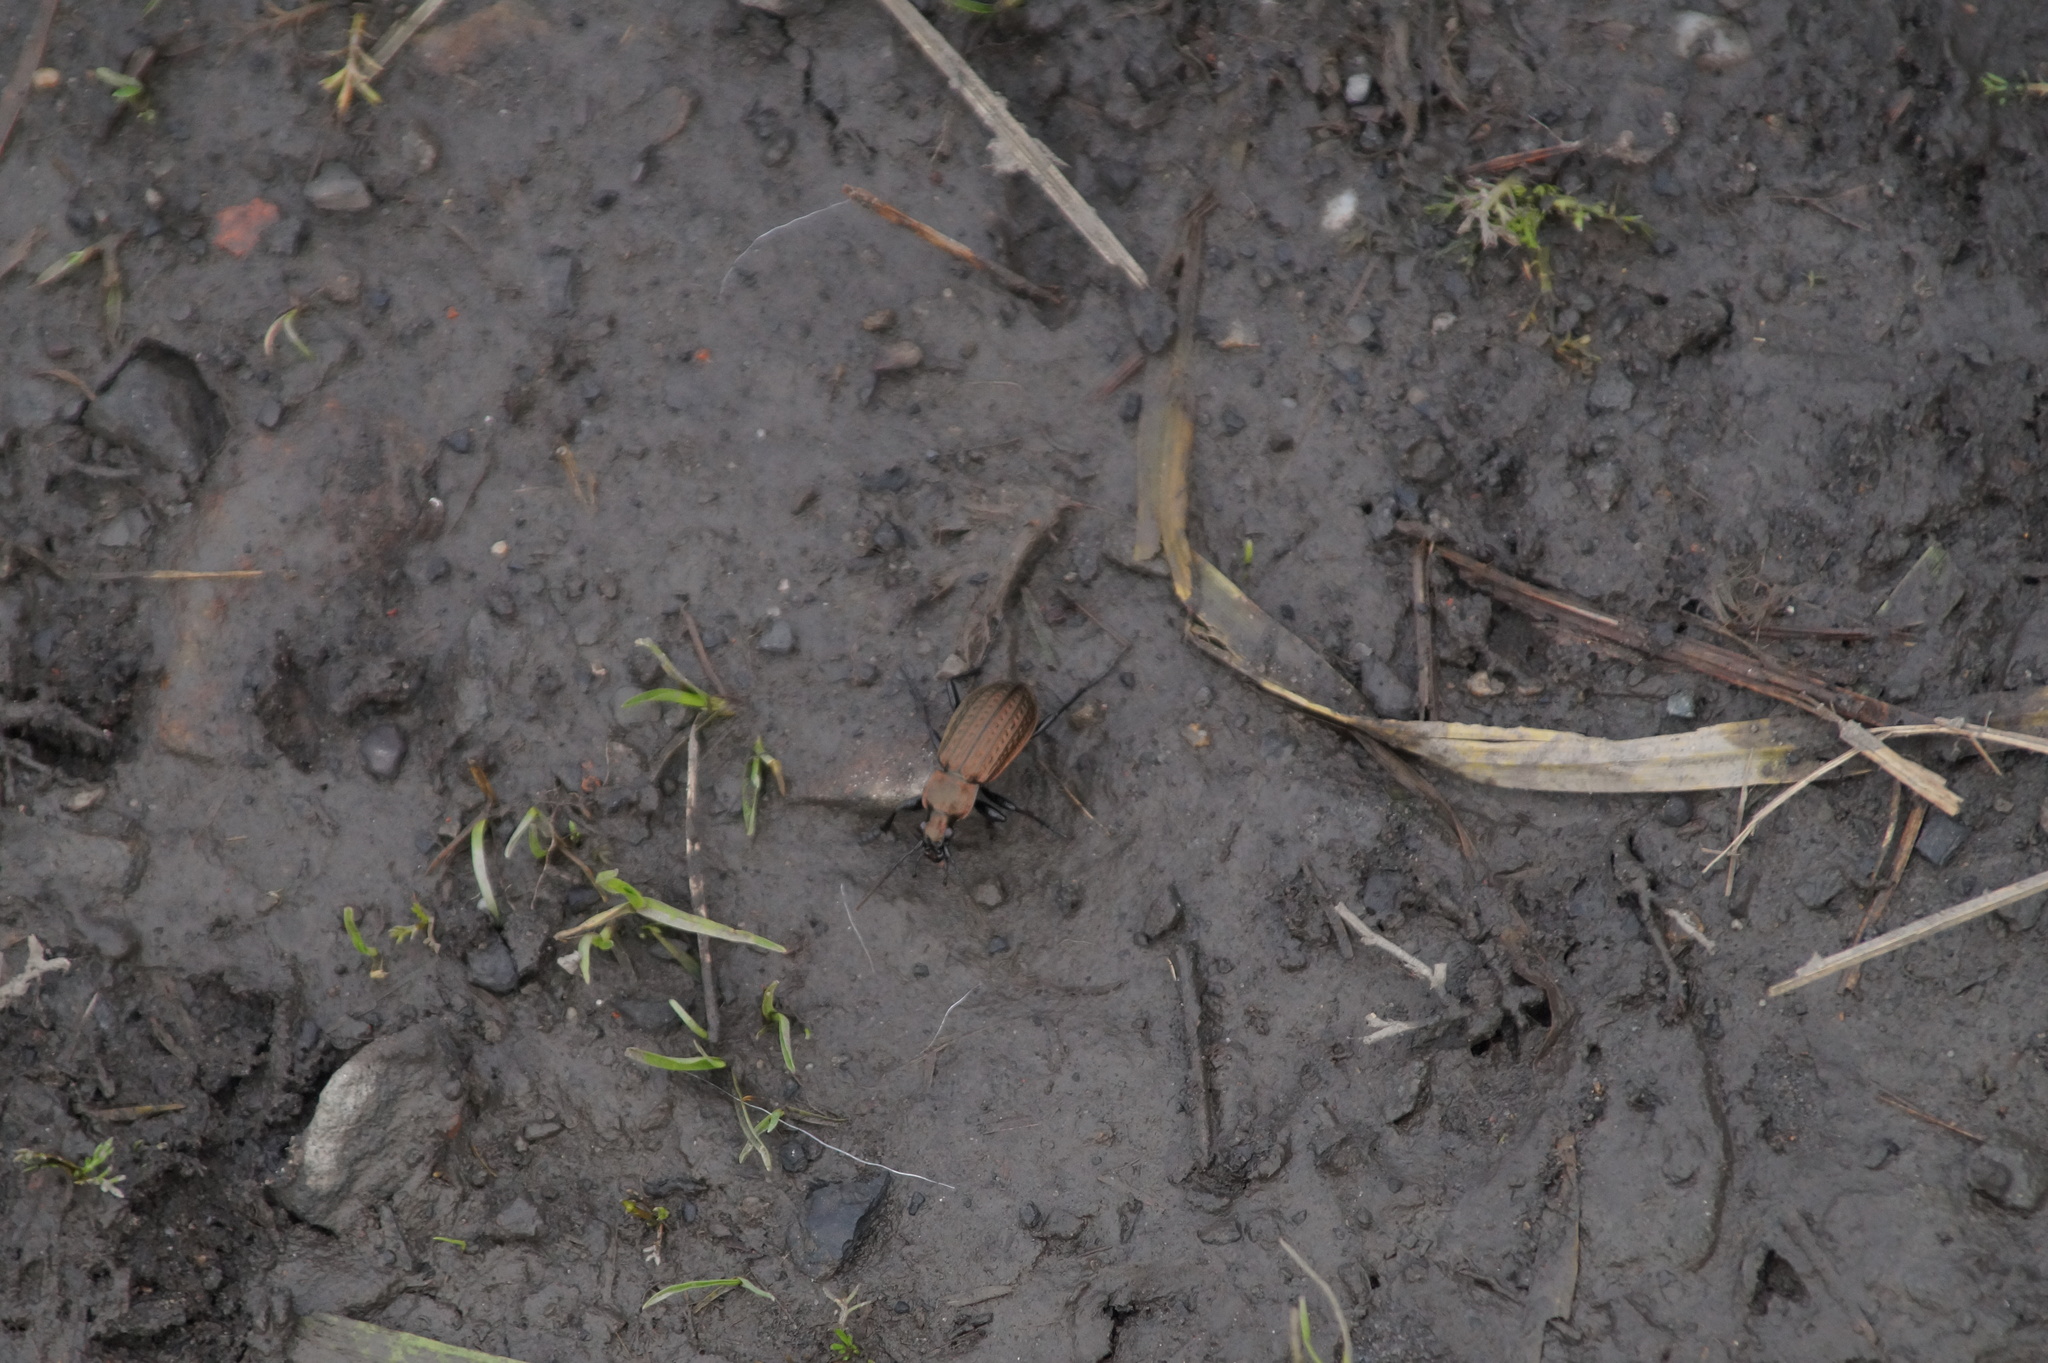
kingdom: Animalia
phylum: Arthropoda
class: Insecta
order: Coleoptera
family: Carabidae
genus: Carabus
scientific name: Carabus granulatus
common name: Granulate ground beetle
